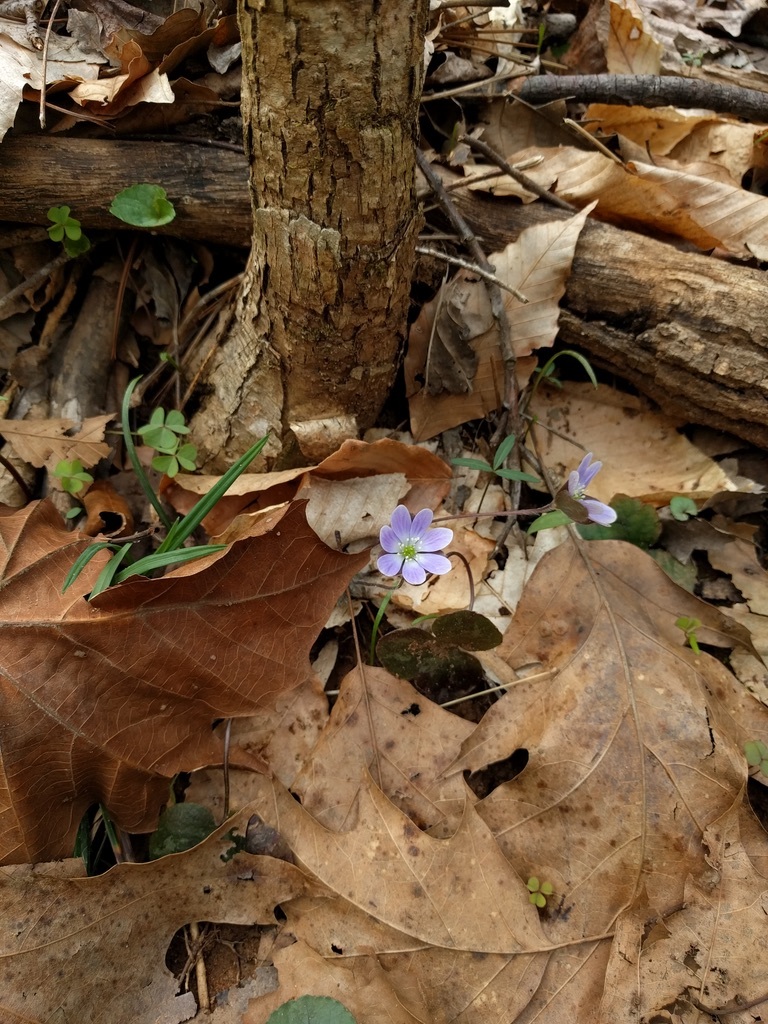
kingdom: Plantae
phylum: Tracheophyta
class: Magnoliopsida
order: Ranunculales
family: Ranunculaceae
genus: Hepatica
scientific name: Hepatica americana
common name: American hepatica
